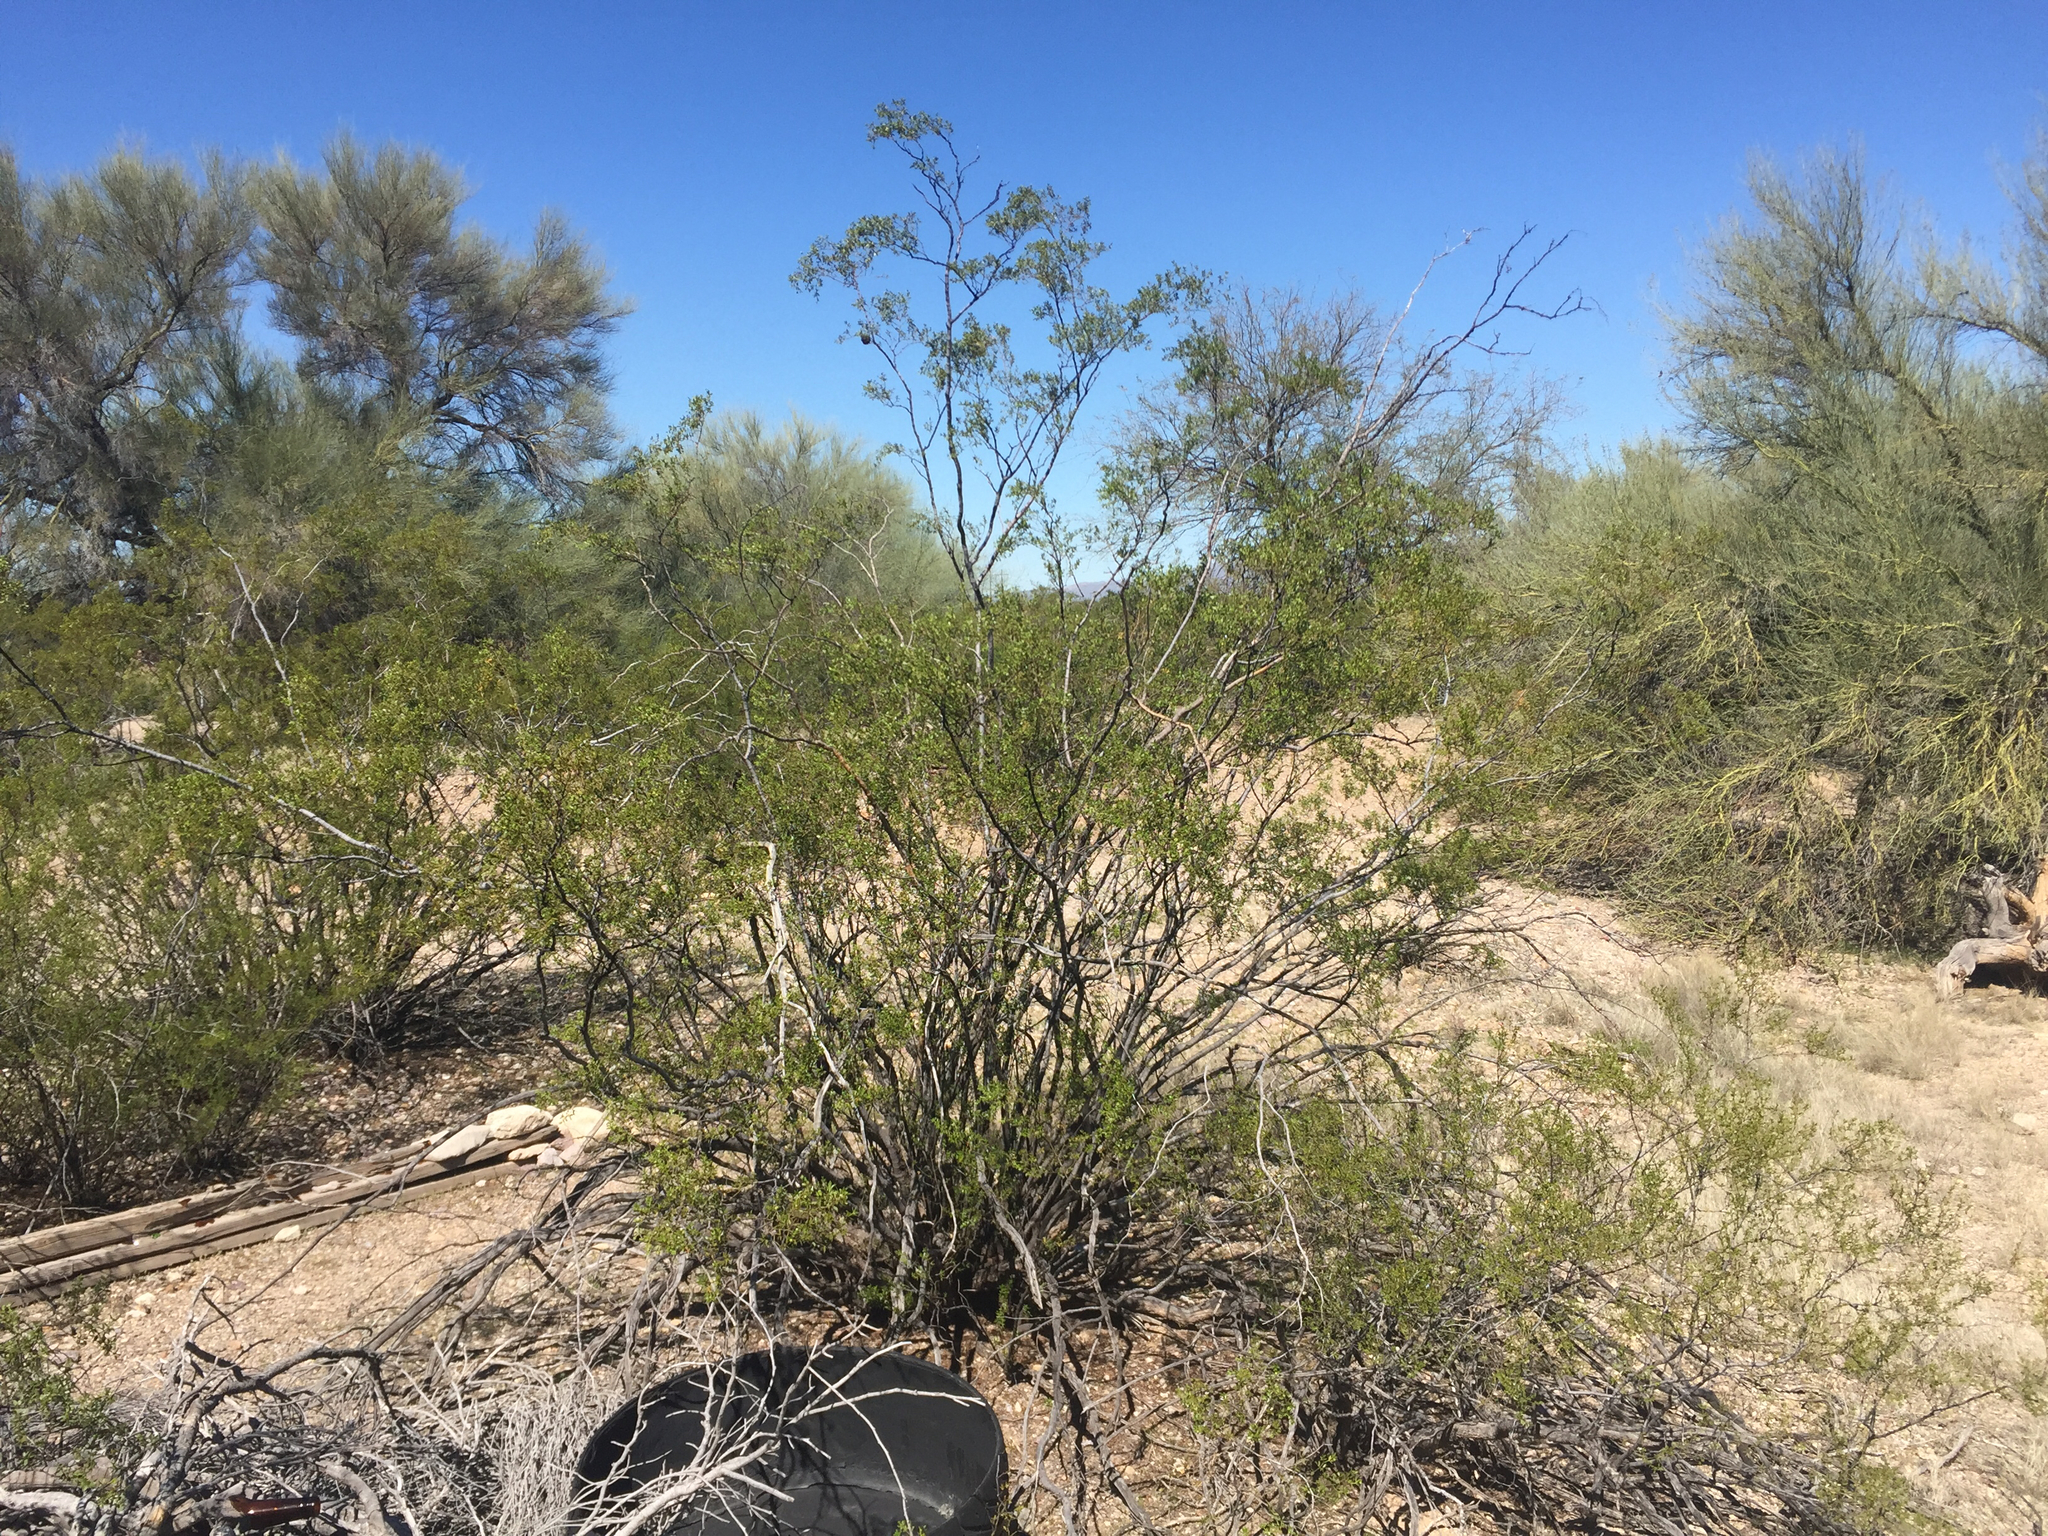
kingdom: Plantae
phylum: Tracheophyta
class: Magnoliopsida
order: Zygophyllales
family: Zygophyllaceae
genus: Larrea
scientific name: Larrea tridentata
